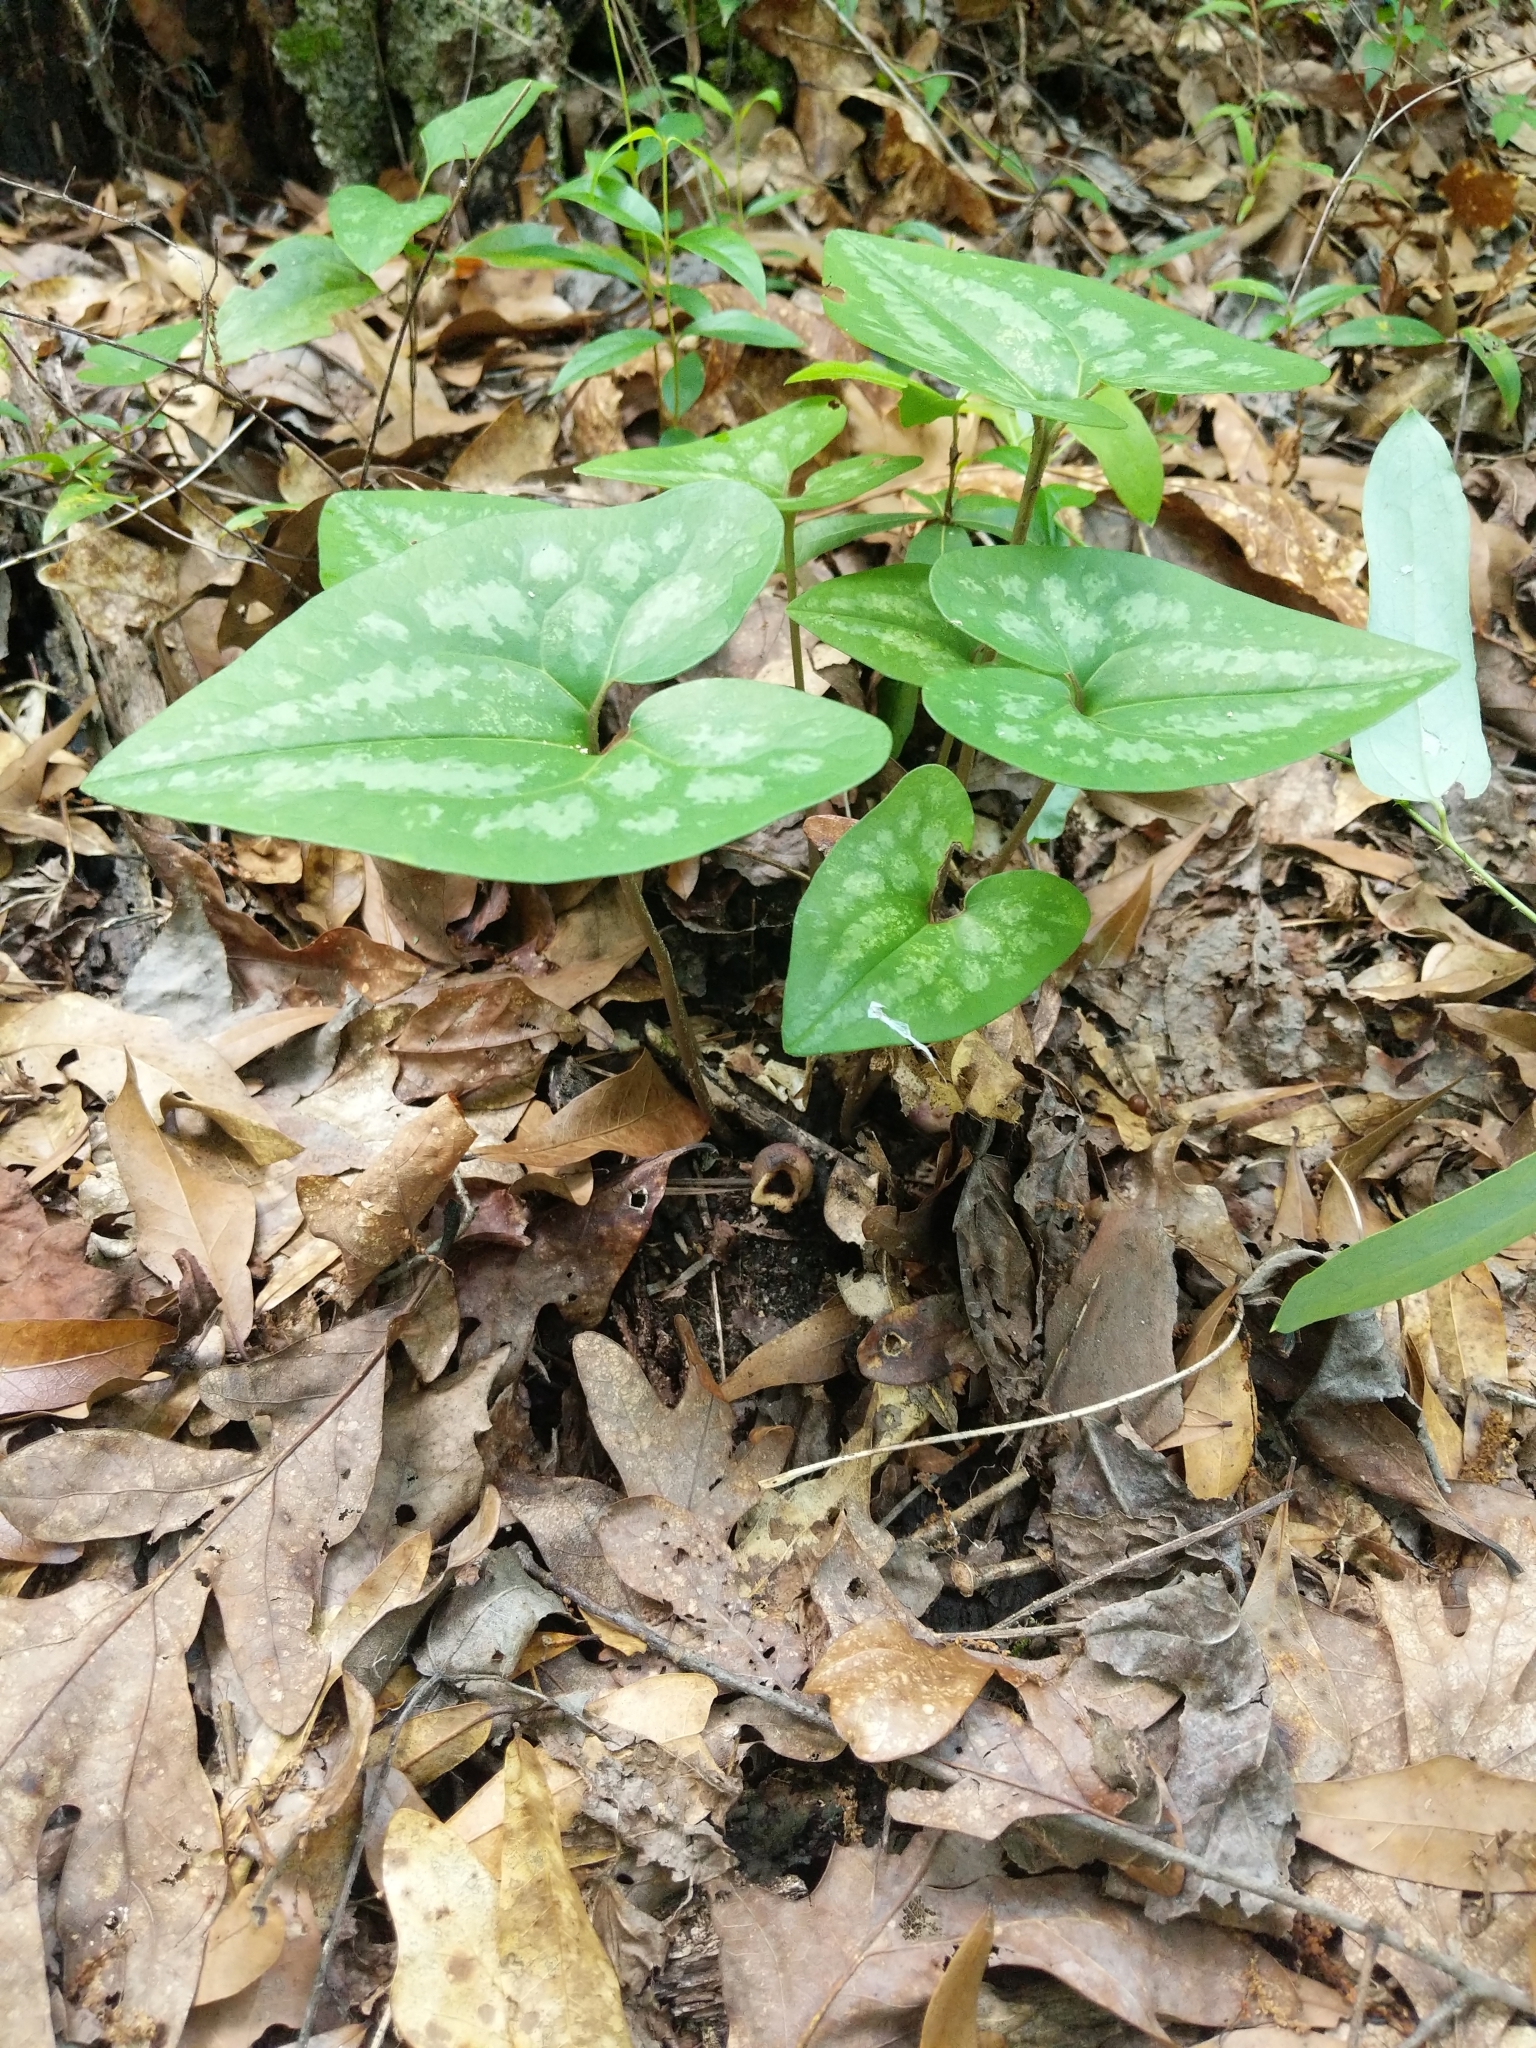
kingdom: Plantae
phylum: Tracheophyta
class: Magnoliopsida
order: Piperales
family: Aristolochiaceae
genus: Hexastylis
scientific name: Hexastylis arifolia
